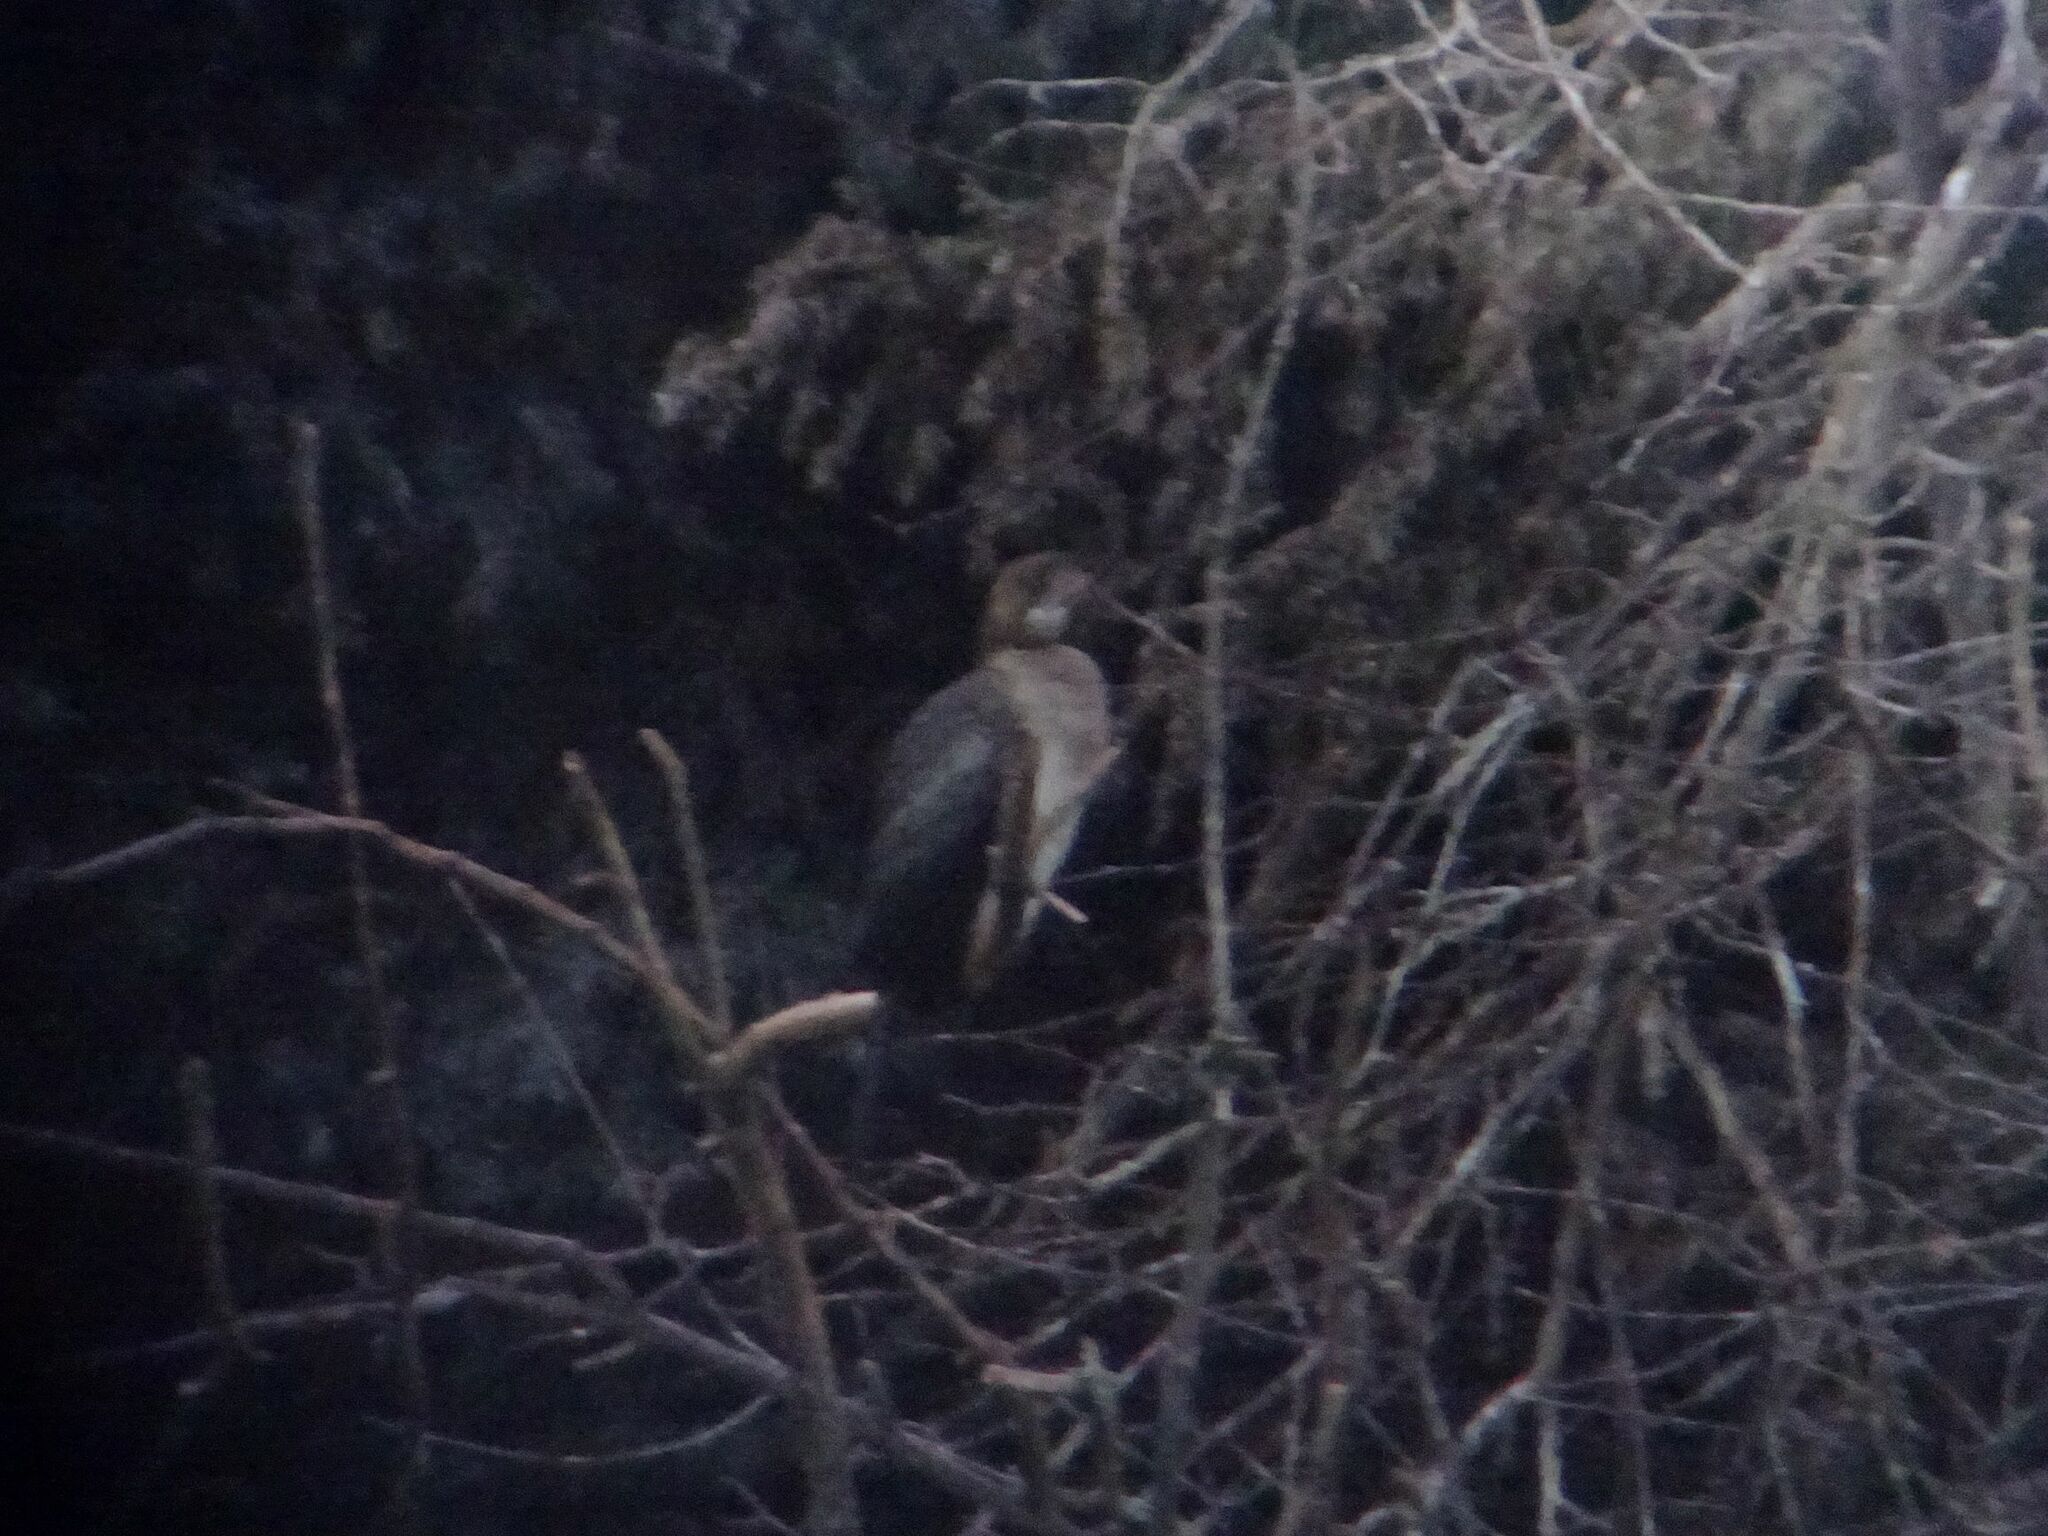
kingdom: Animalia
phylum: Chordata
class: Aves
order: Suliformes
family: Phalacrocoracidae
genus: Microcarbo
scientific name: Microcarbo pygmaeus
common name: Pygmy cormorant
